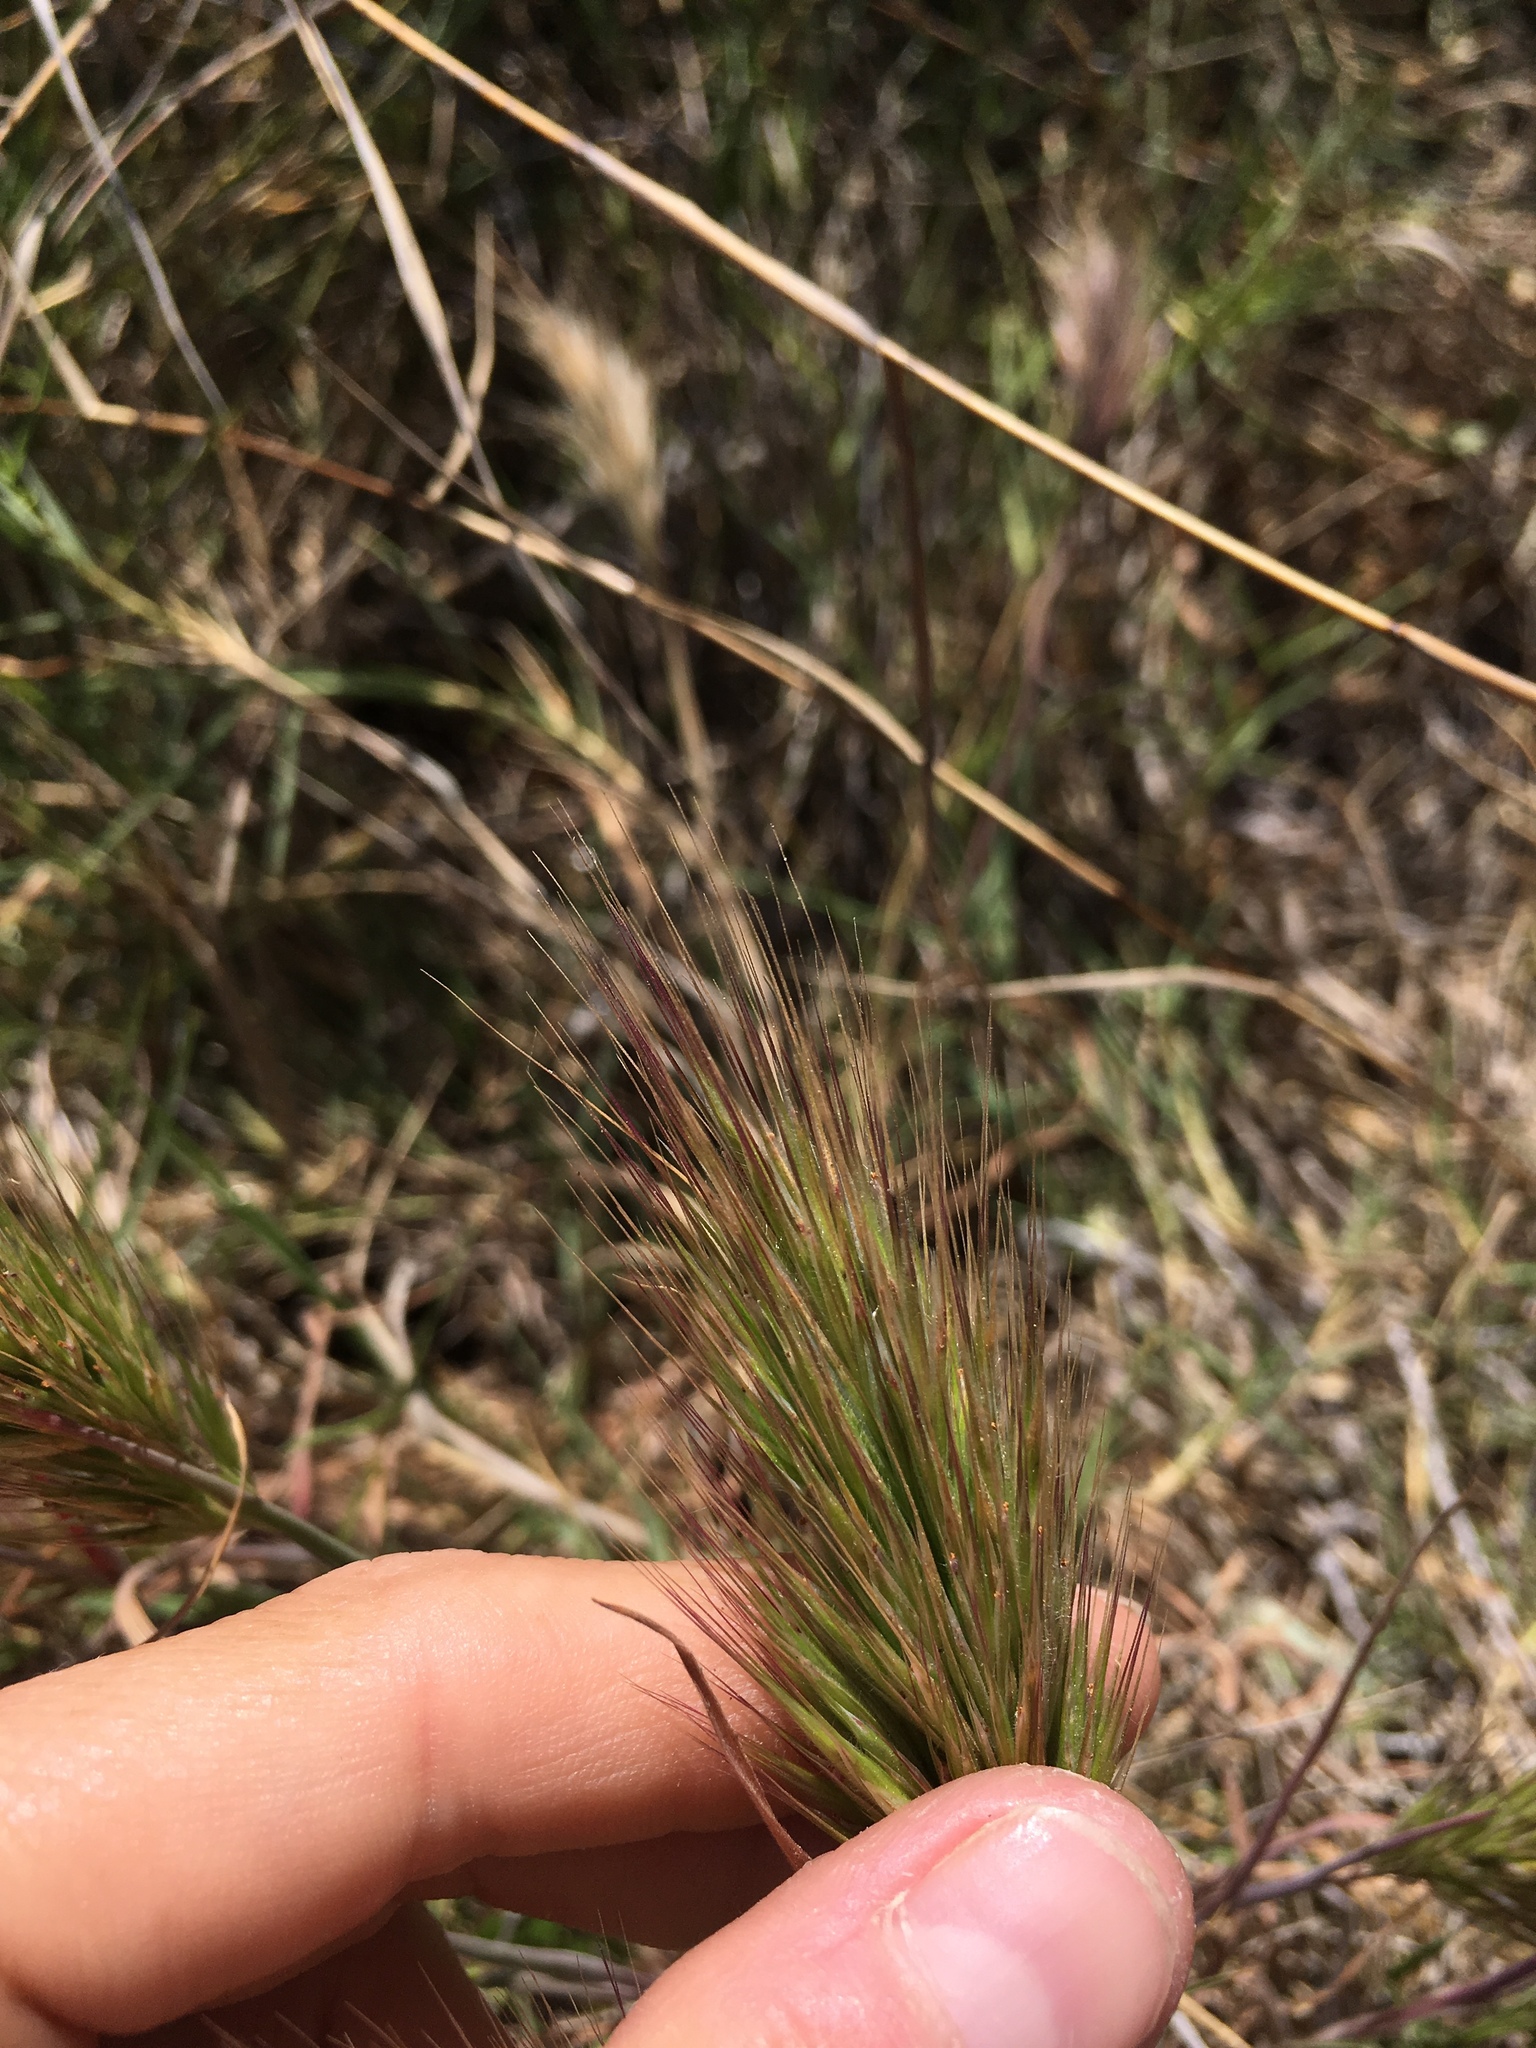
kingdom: Plantae
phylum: Tracheophyta
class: Liliopsida
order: Poales
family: Poaceae
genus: Bromus
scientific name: Bromus rubens
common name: Red brome
